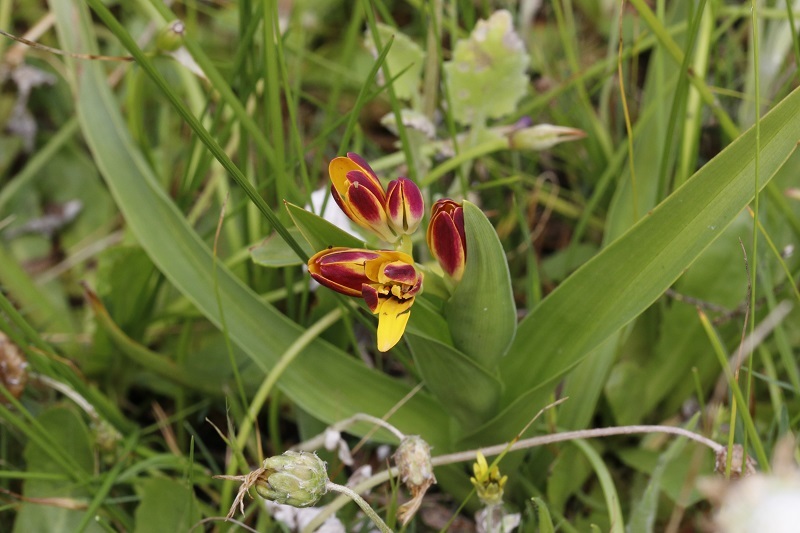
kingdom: Plantae
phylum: Tracheophyta
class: Liliopsida
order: Liliales
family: Colchicaceae
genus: Baeometra
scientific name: Baeometra uniflora
